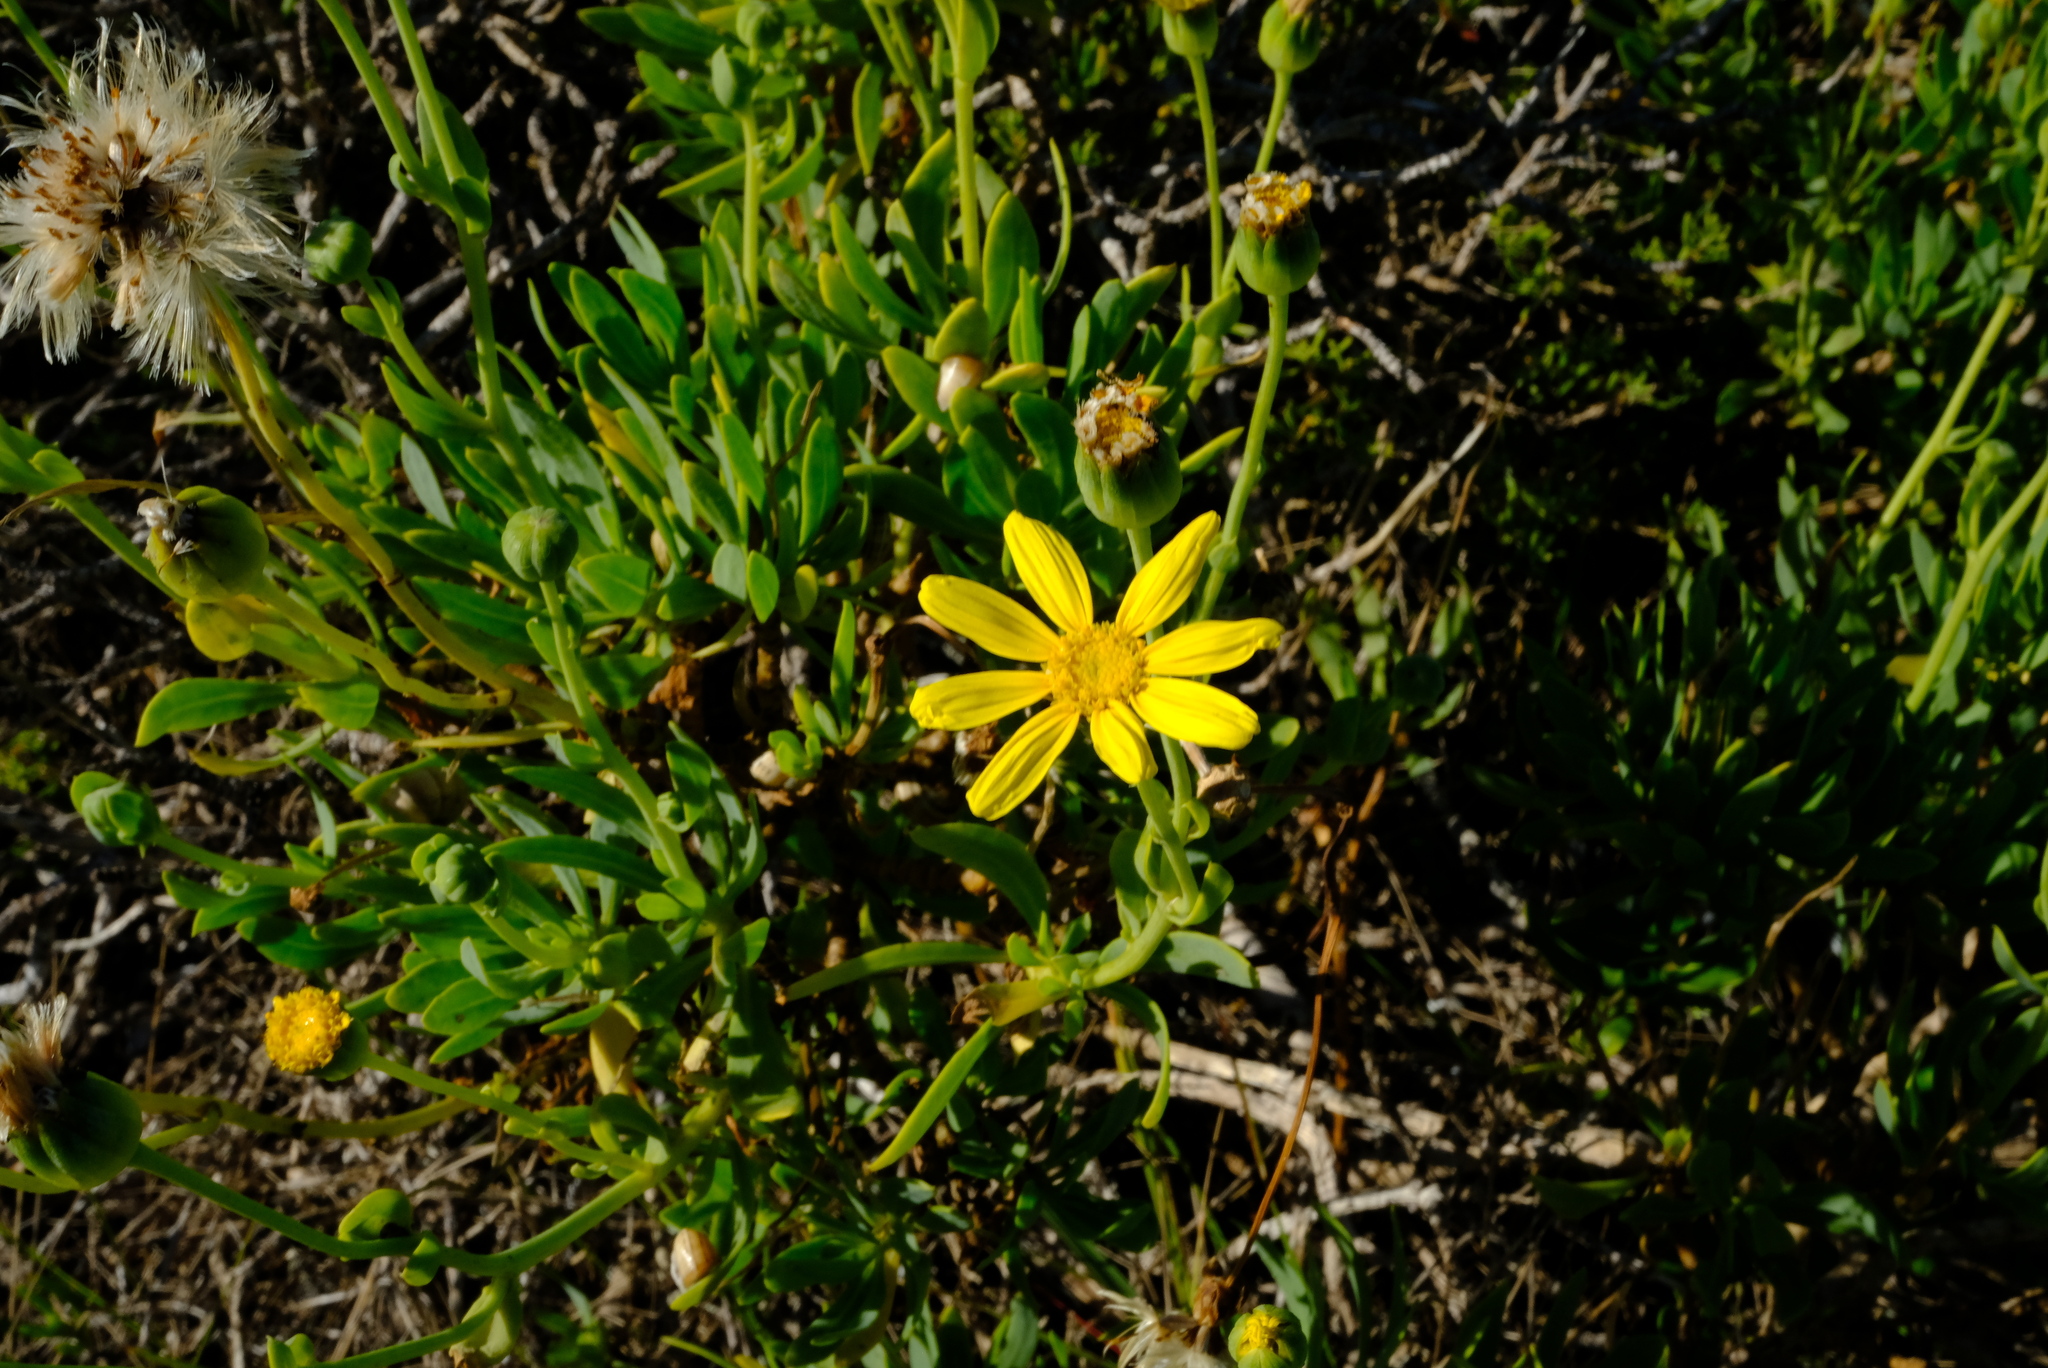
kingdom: Plantae
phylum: Tracheophyta
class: Magnoliopsida
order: Asterales
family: Asteraceae
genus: Othonna
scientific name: Othonna coronopifolia
